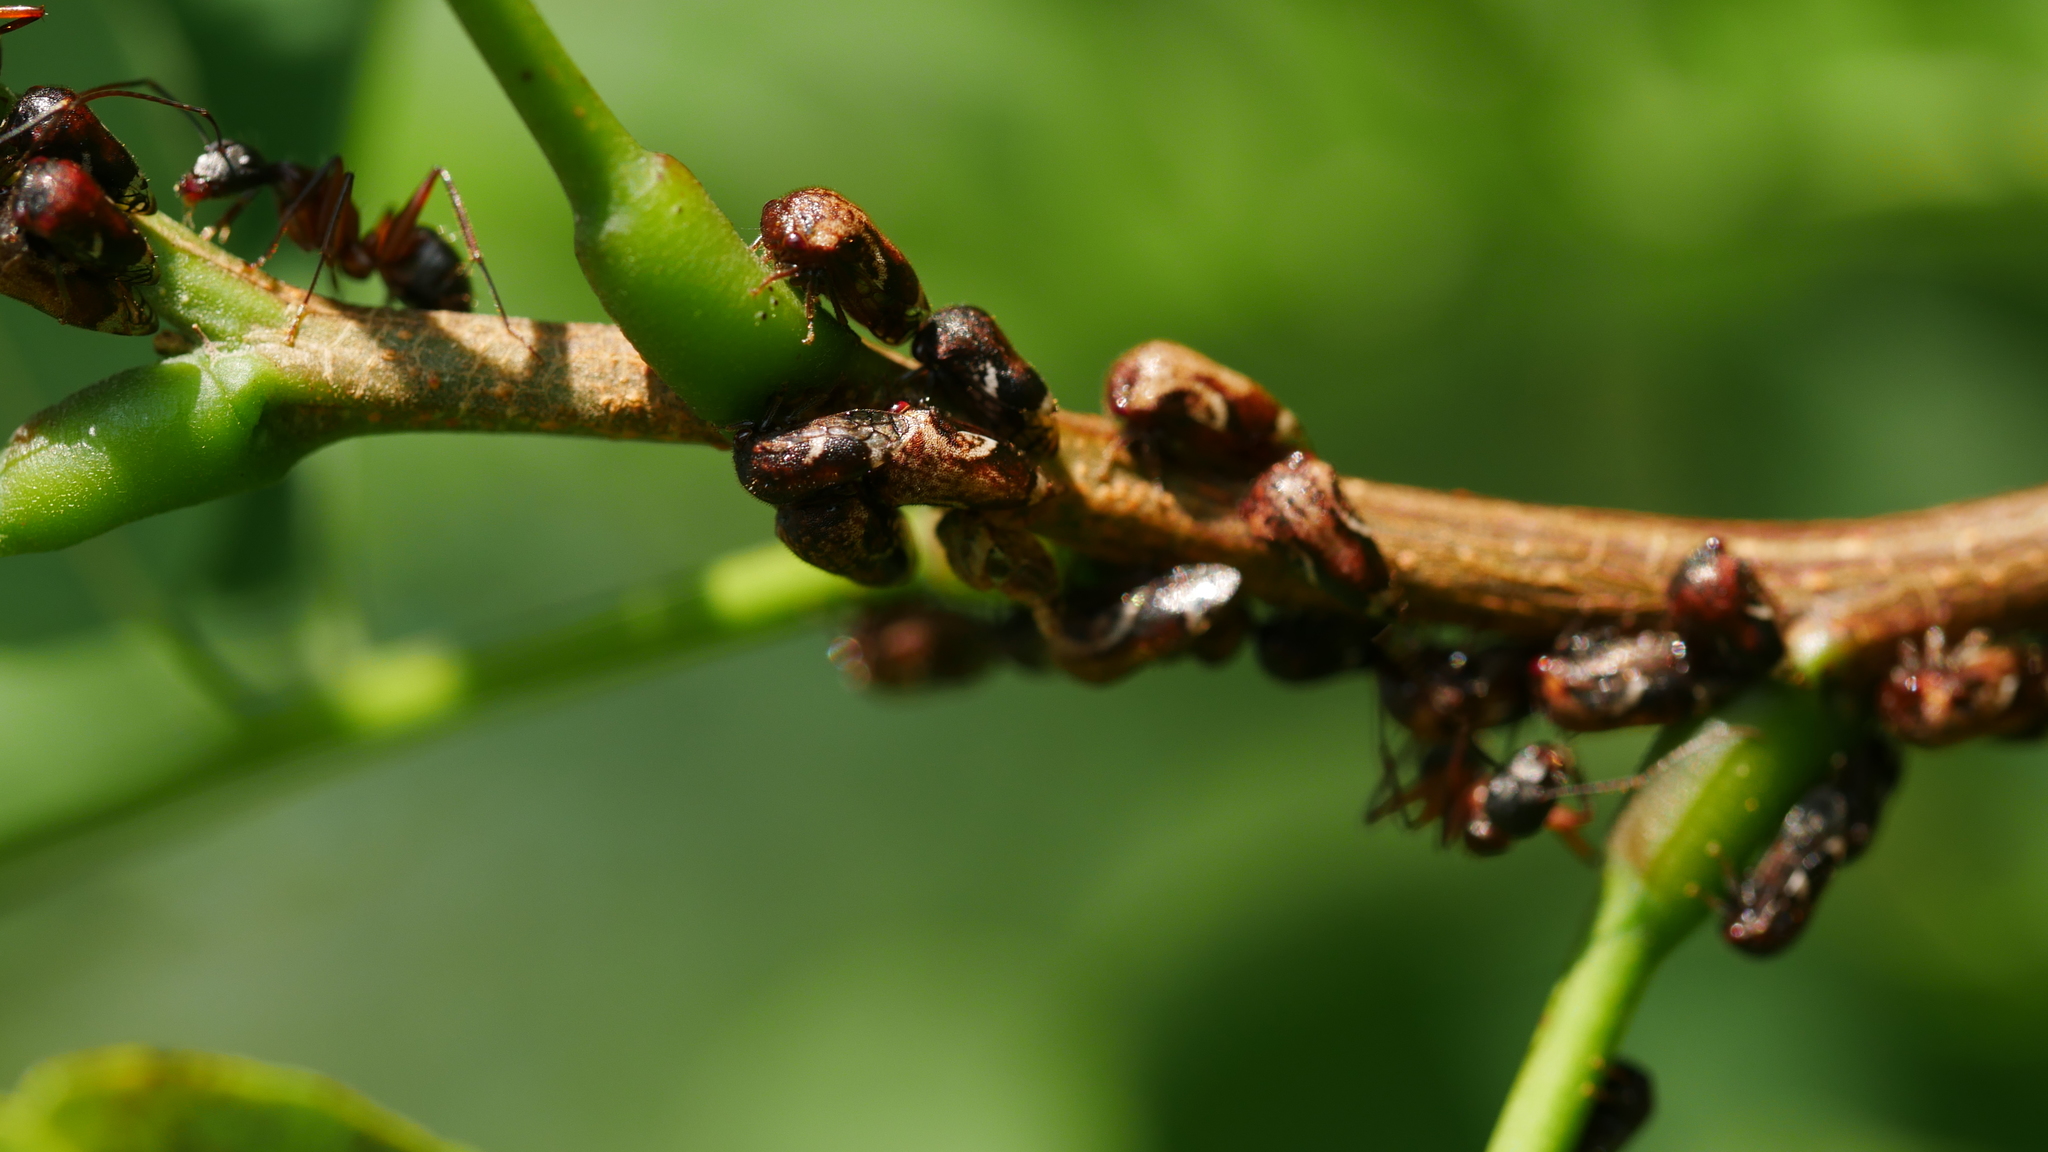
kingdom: Animalia
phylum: Arthropoda
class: Insecta
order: Hemiptera
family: Membracidae
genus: Vanduzea
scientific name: Vanduzea arquata
